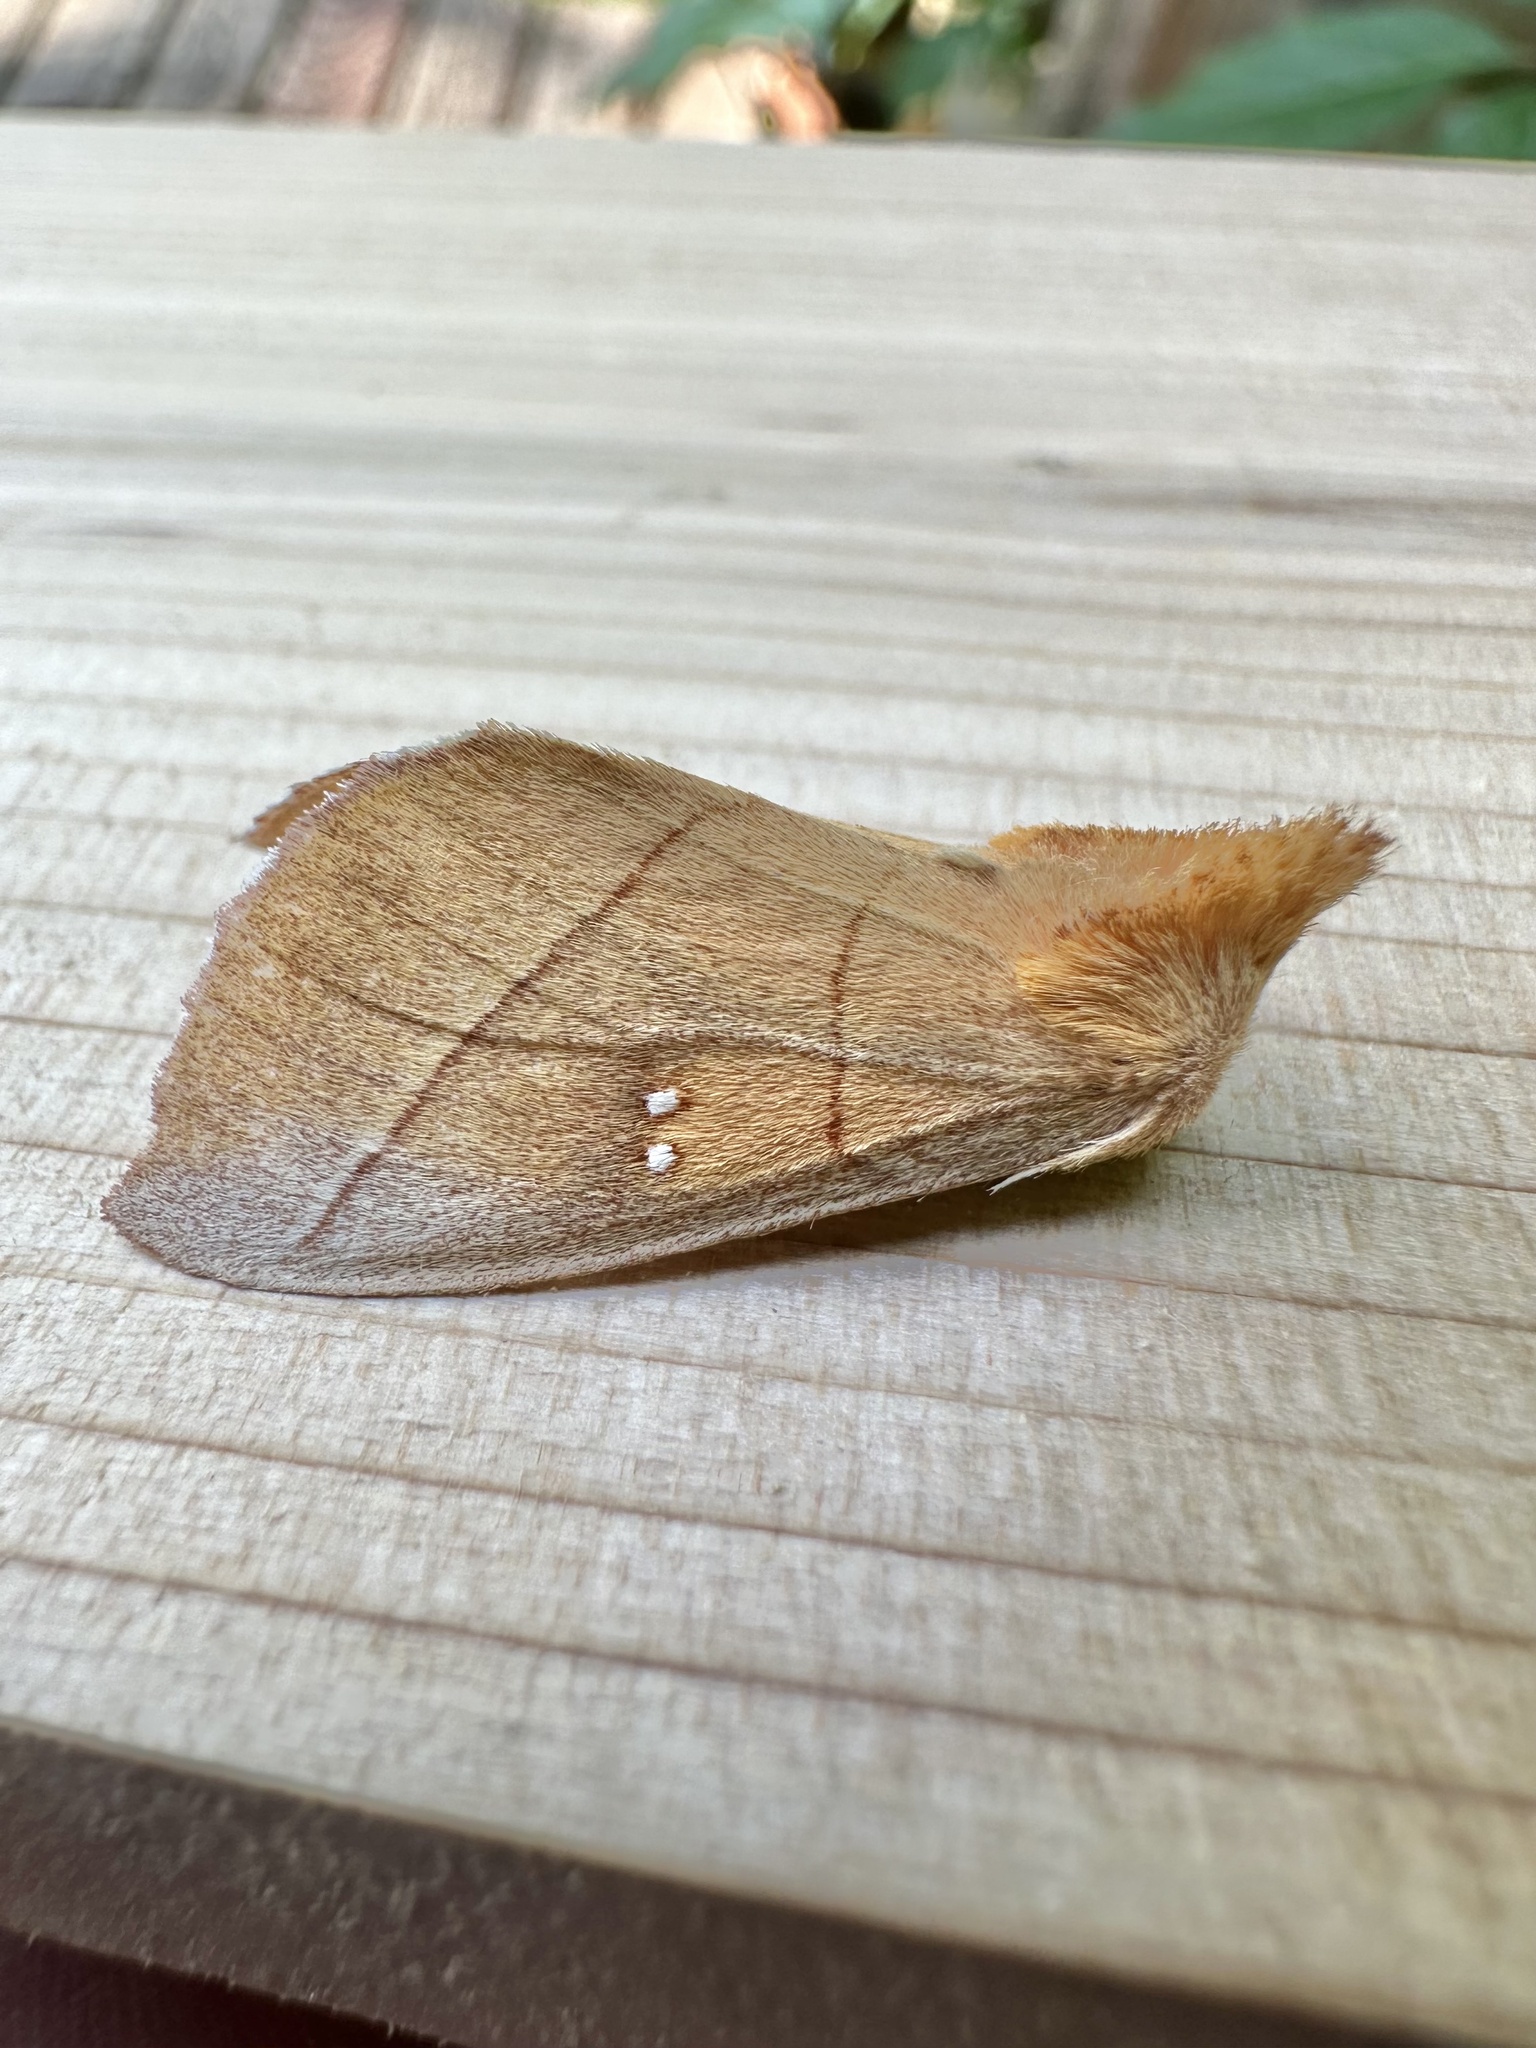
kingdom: Animalia
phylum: Arthropoda
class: Insecta
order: Lepidoptera
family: Notodontidae
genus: Nadata
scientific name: Nadata gibbosa
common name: White-dotted prominent
